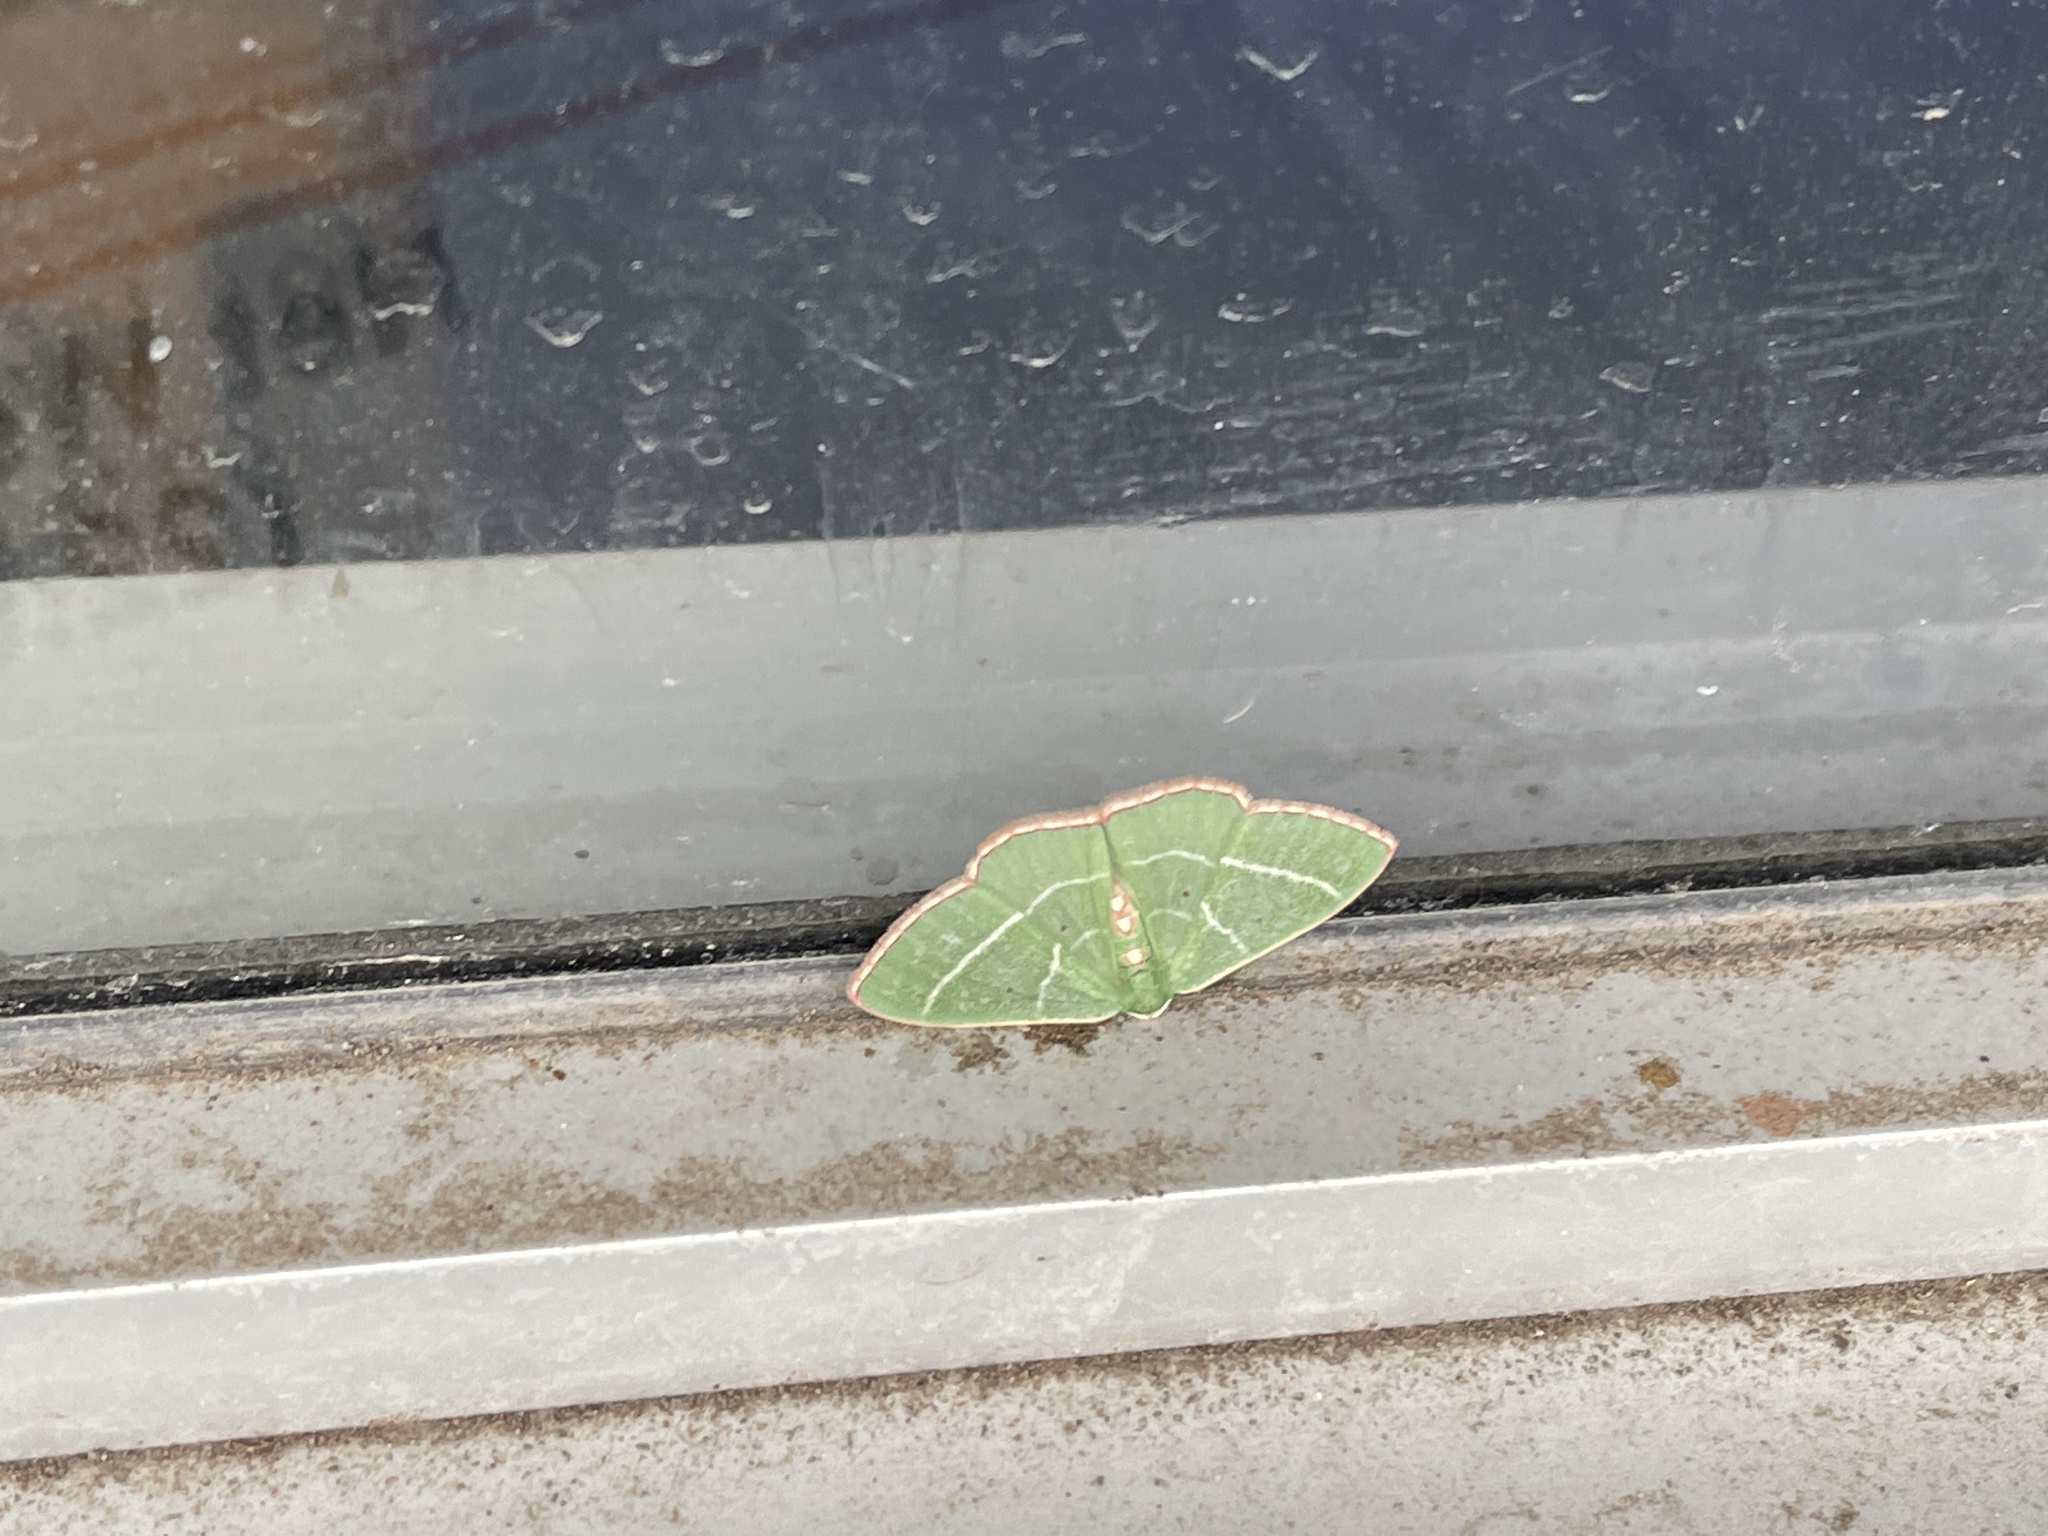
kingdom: Animalia
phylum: Arthropoda
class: Insecta
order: Lepidoptera
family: Geometridae
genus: Nemoria
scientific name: Nemoria obliqua
